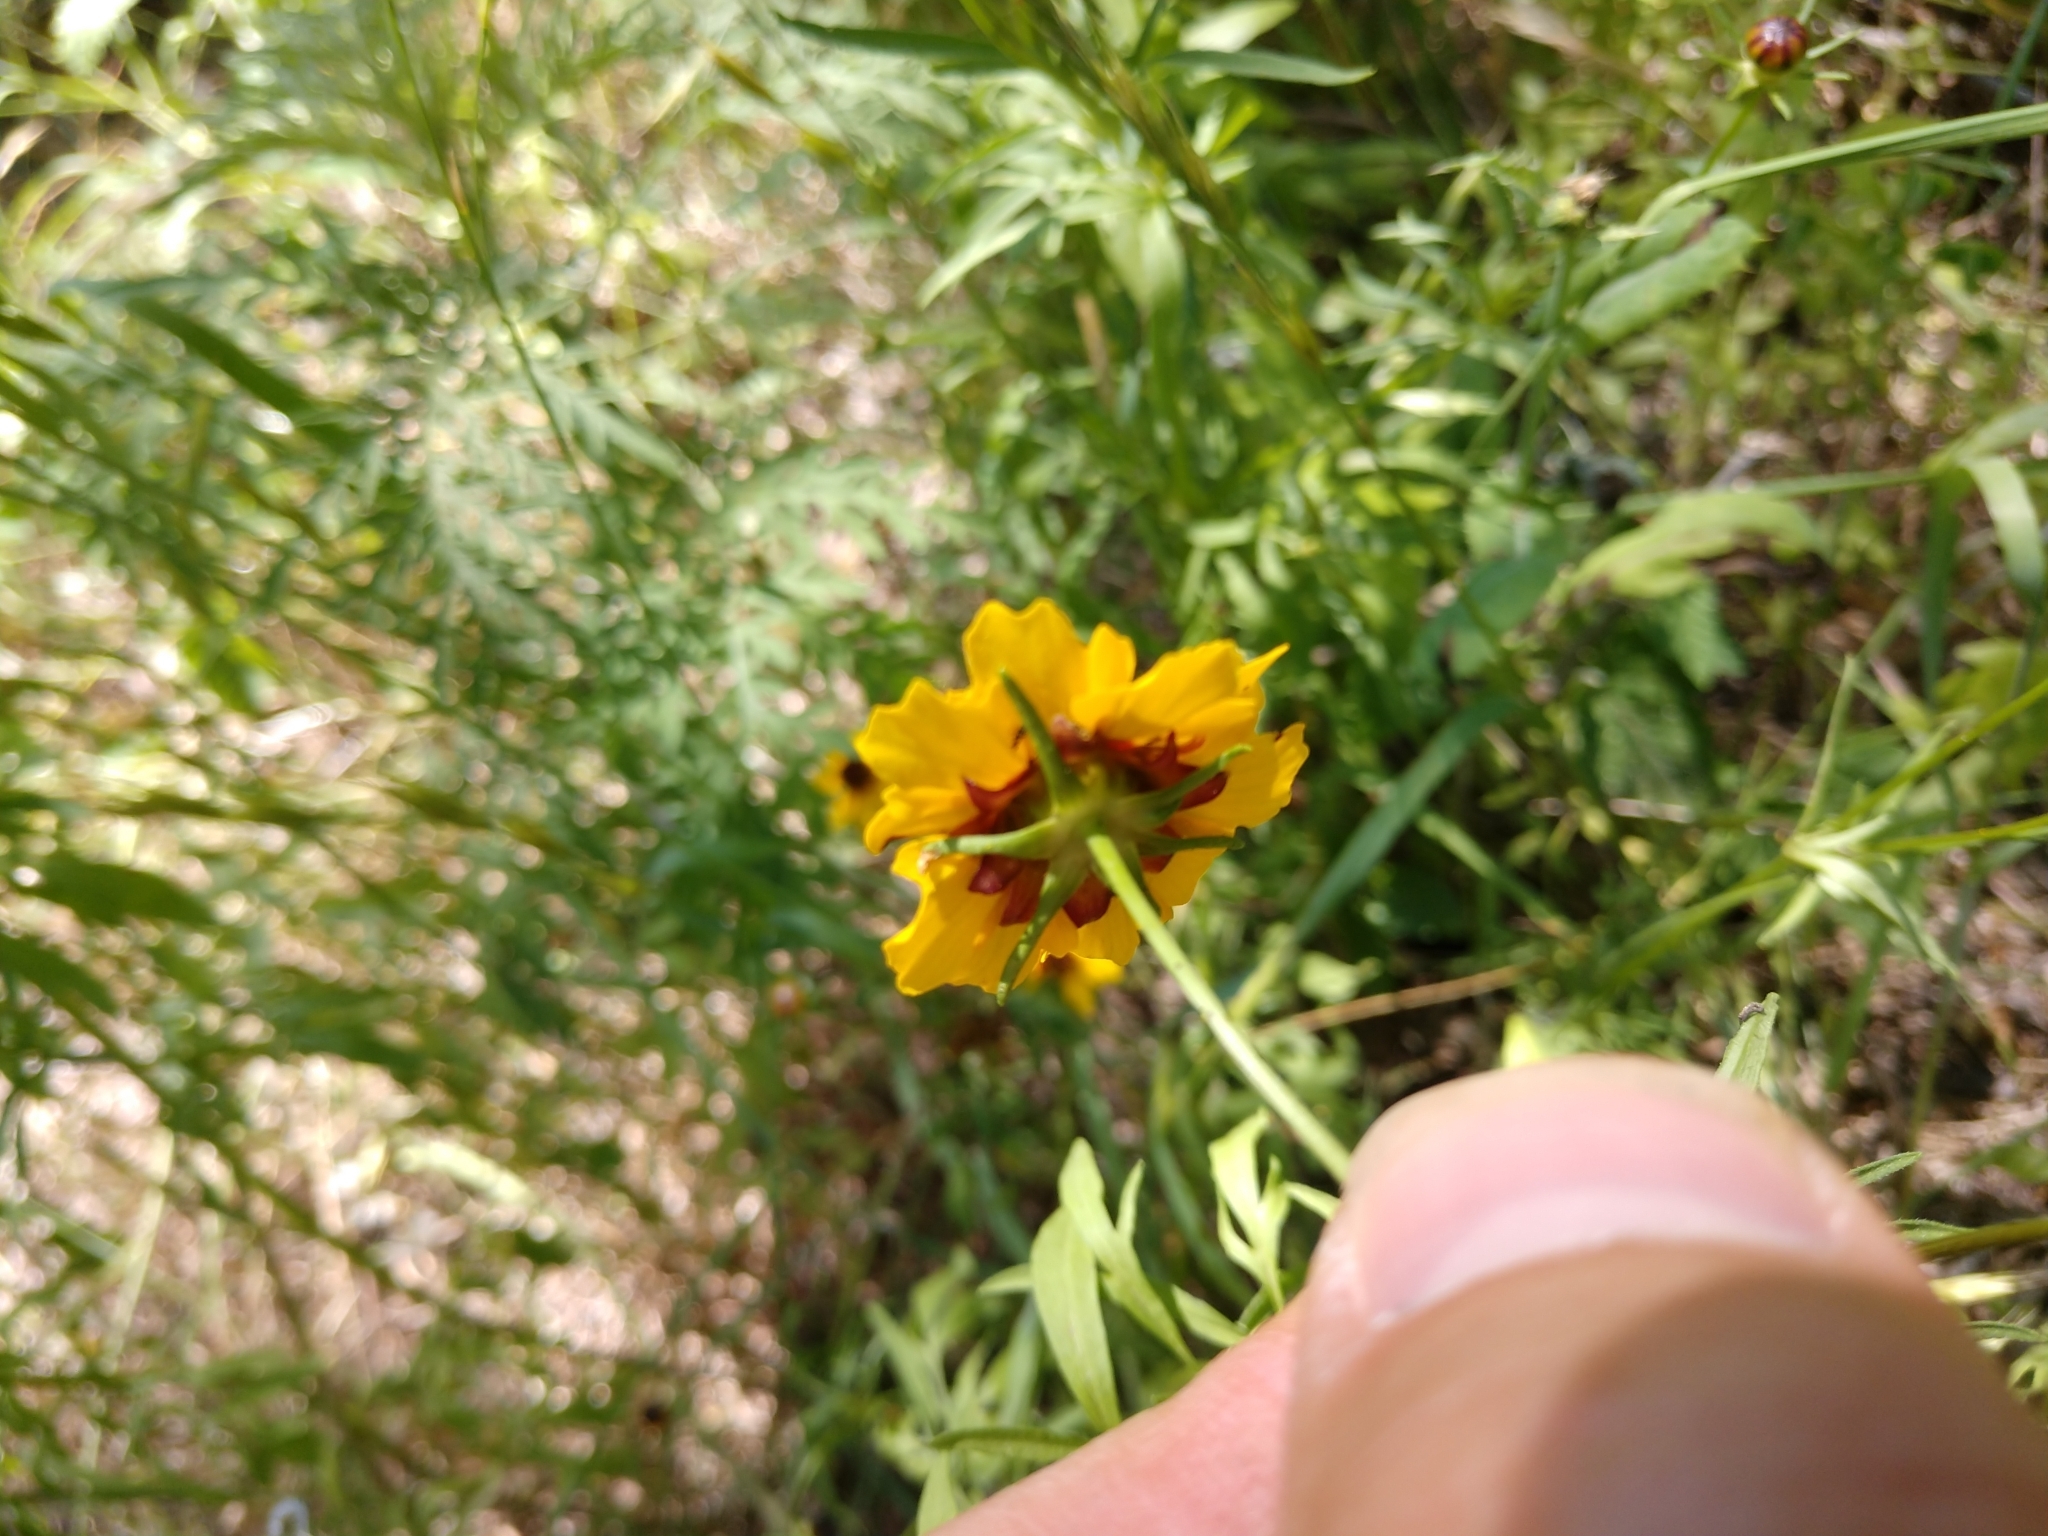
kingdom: Plantae
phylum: Tracheophyta
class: Magnoliopsida
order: Asterales
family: Asteraceae
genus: Coreopsis
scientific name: Coreopsis basalis
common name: Golden-mane coreopsis
